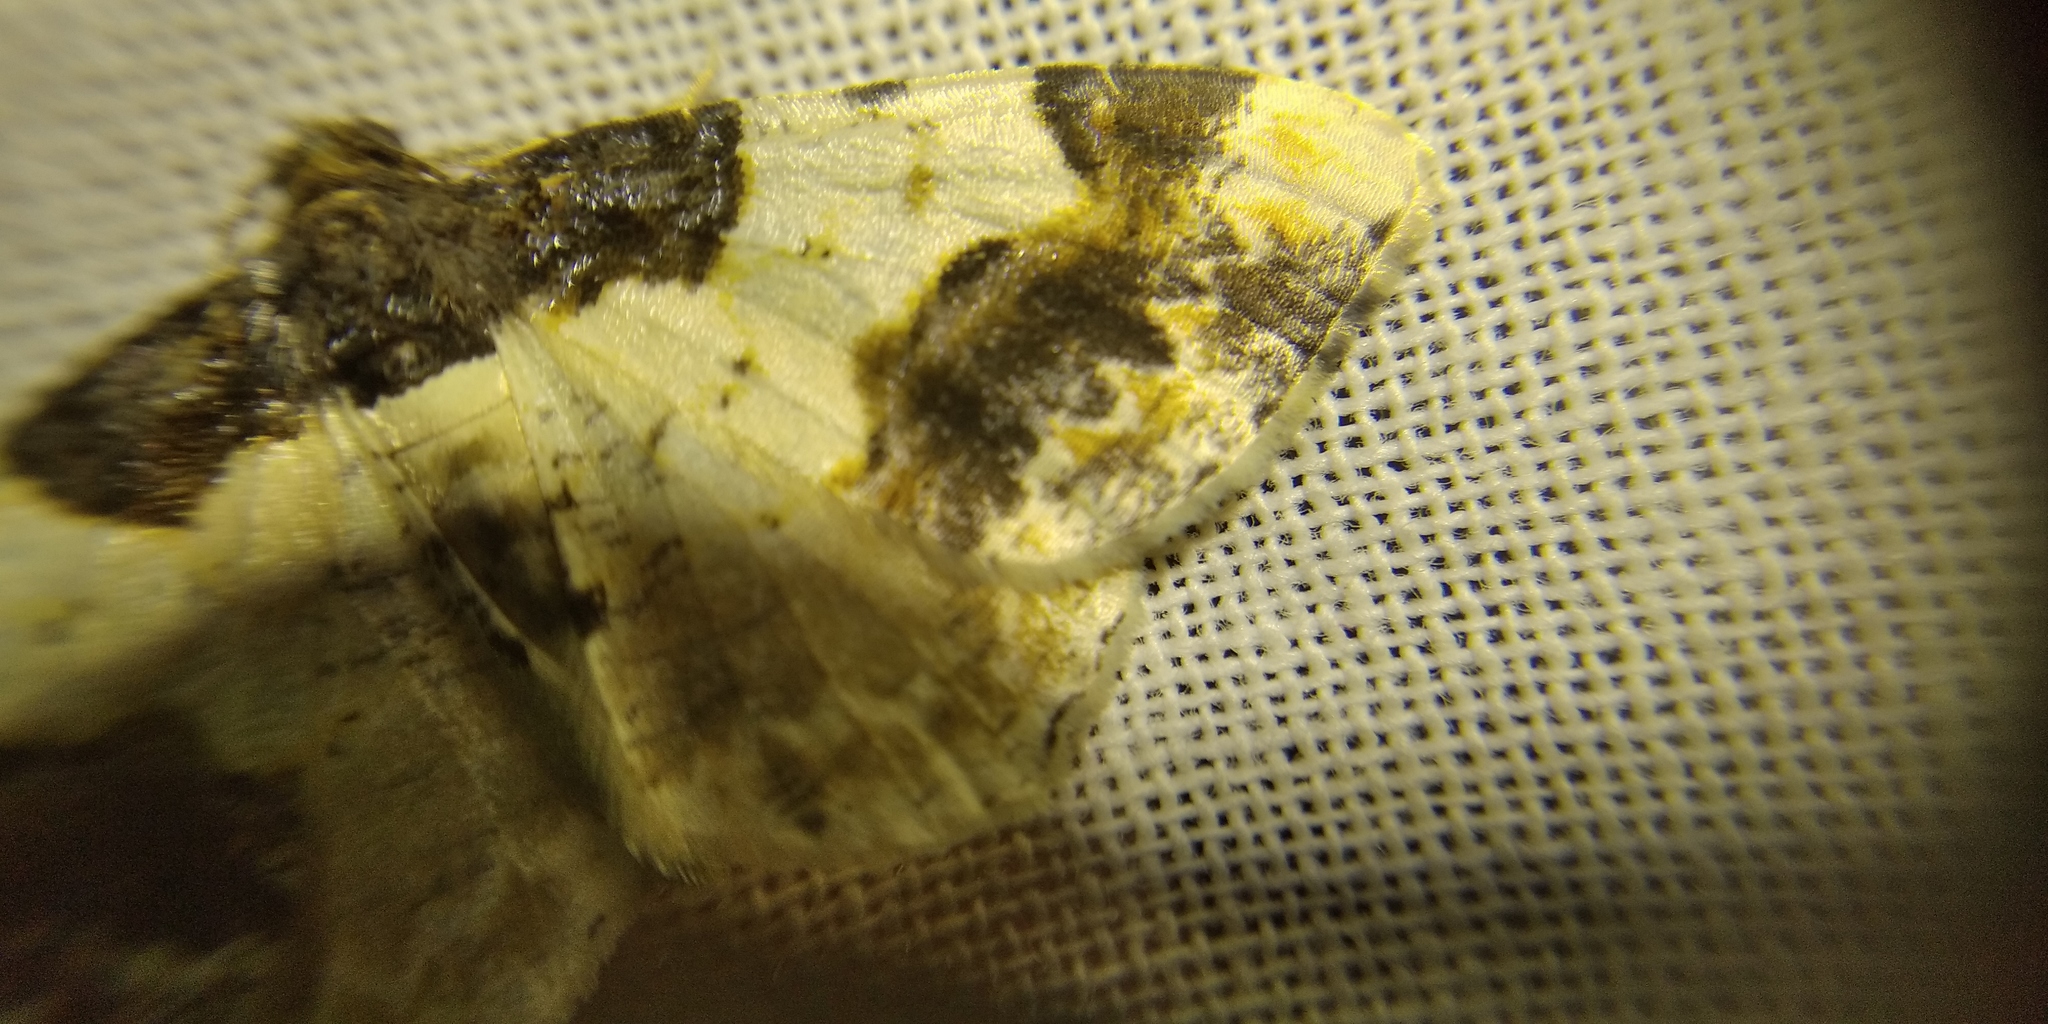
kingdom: Animalia
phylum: Arthropoda
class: Insecta
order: Lepidoptera
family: Geometridae
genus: Ligdia
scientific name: Ligdia adustata
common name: Scorched carpet
